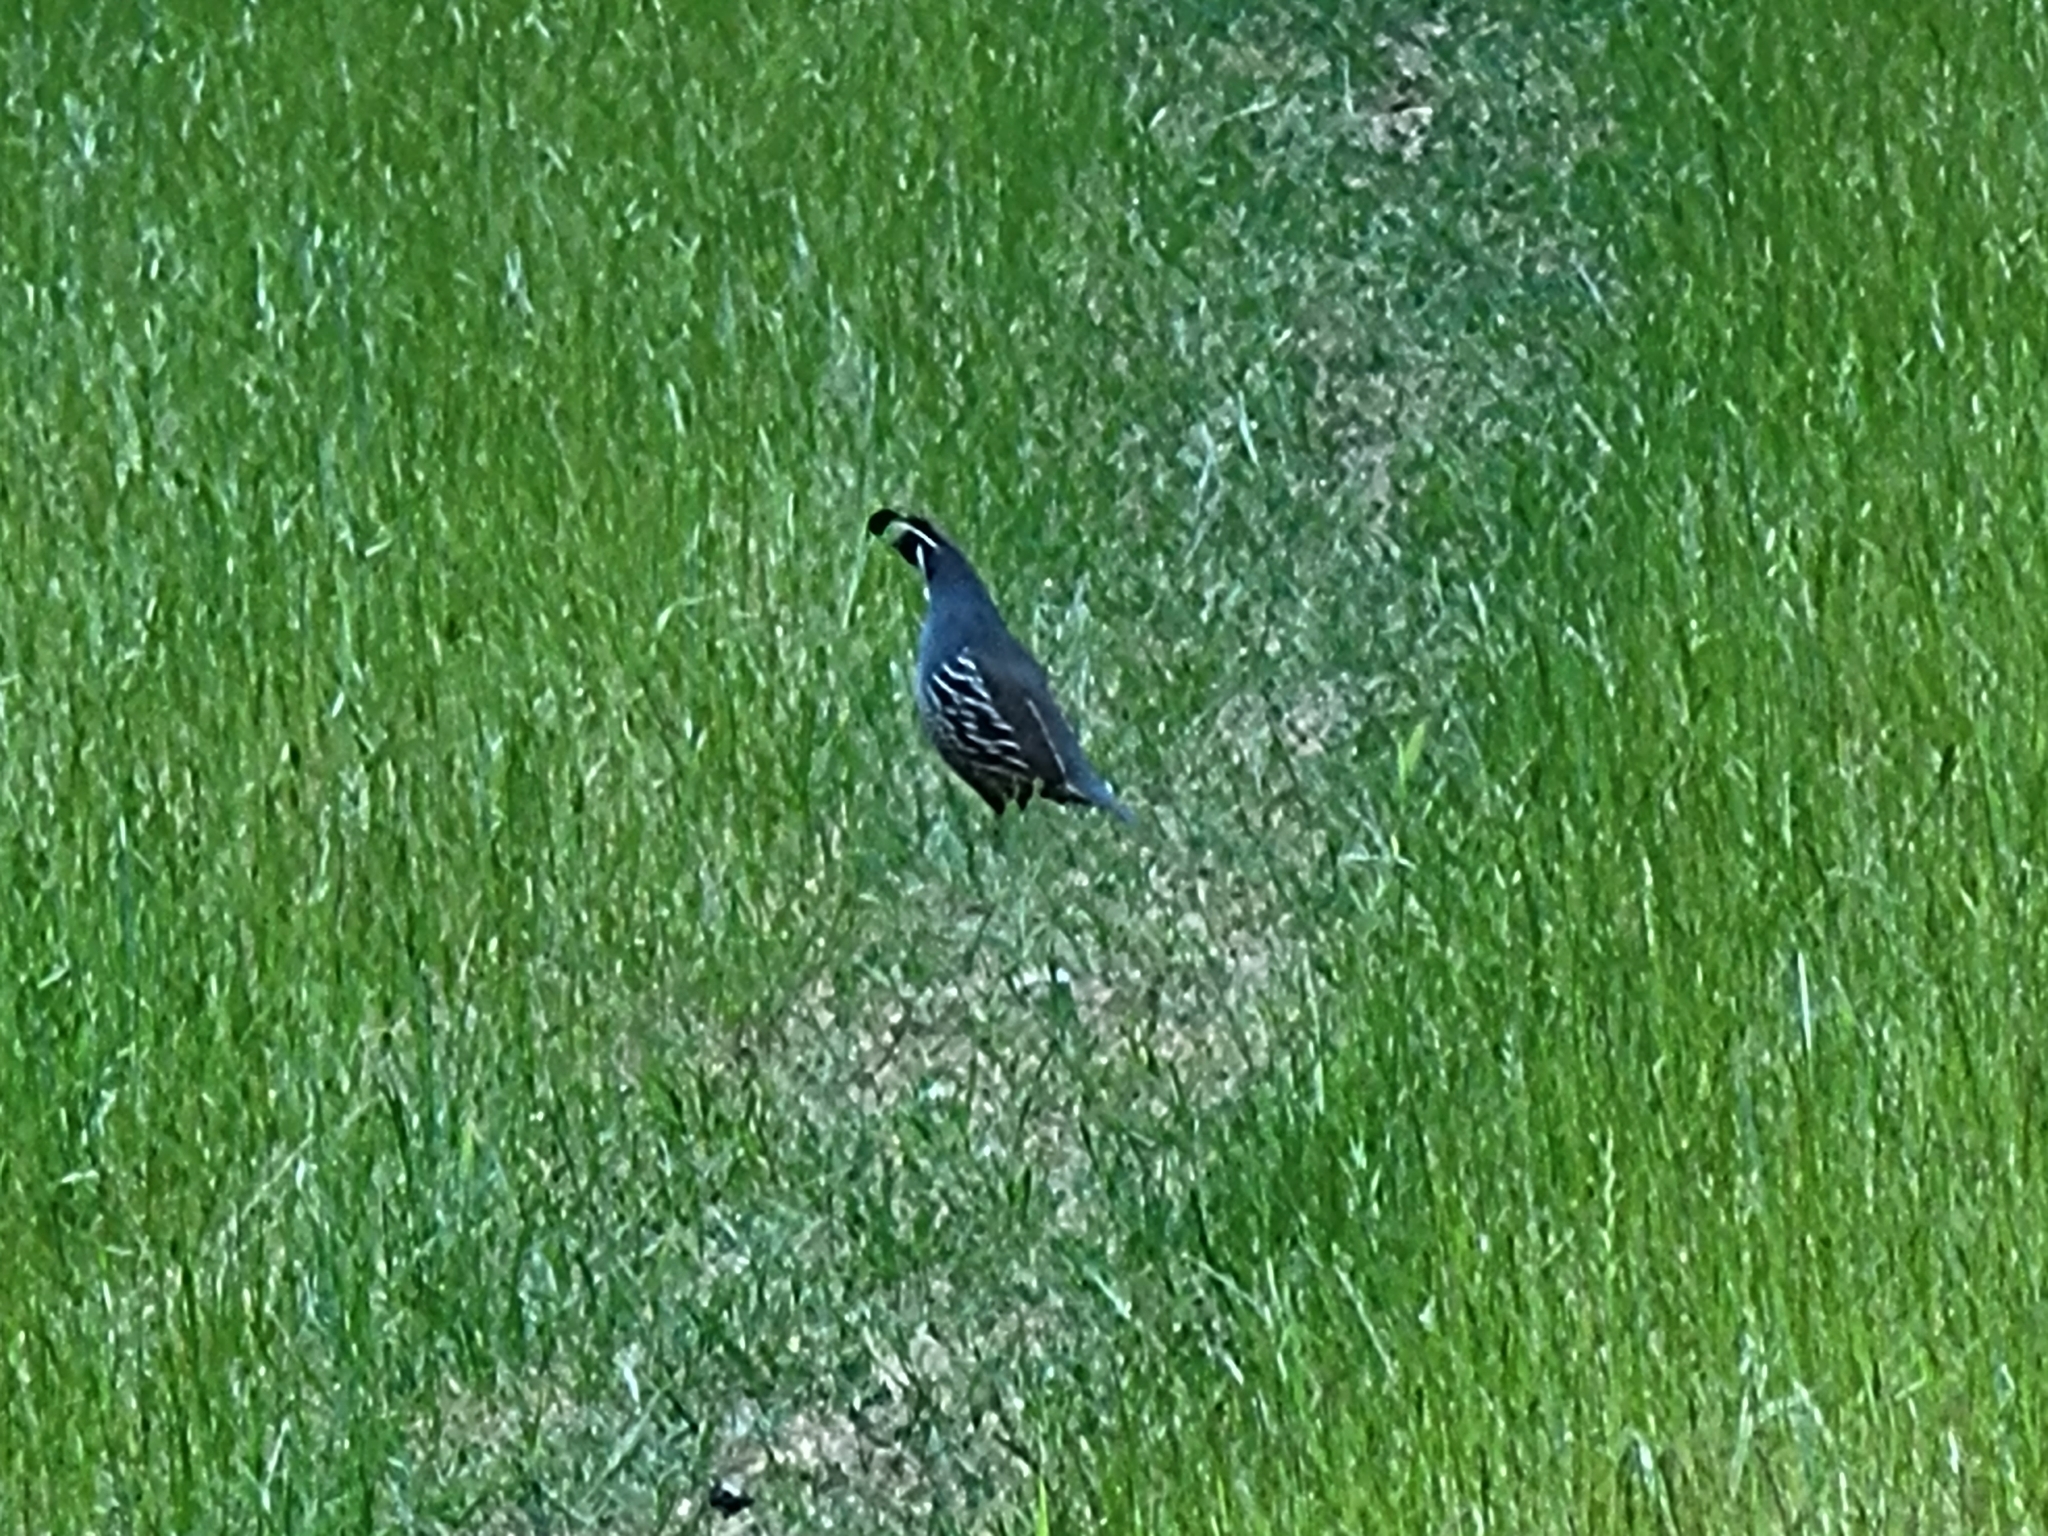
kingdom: Animalia
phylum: Chordata
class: Aves
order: Galliformes
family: Odontophoridae
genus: Callipepla
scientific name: Callipepla californica
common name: California quail
